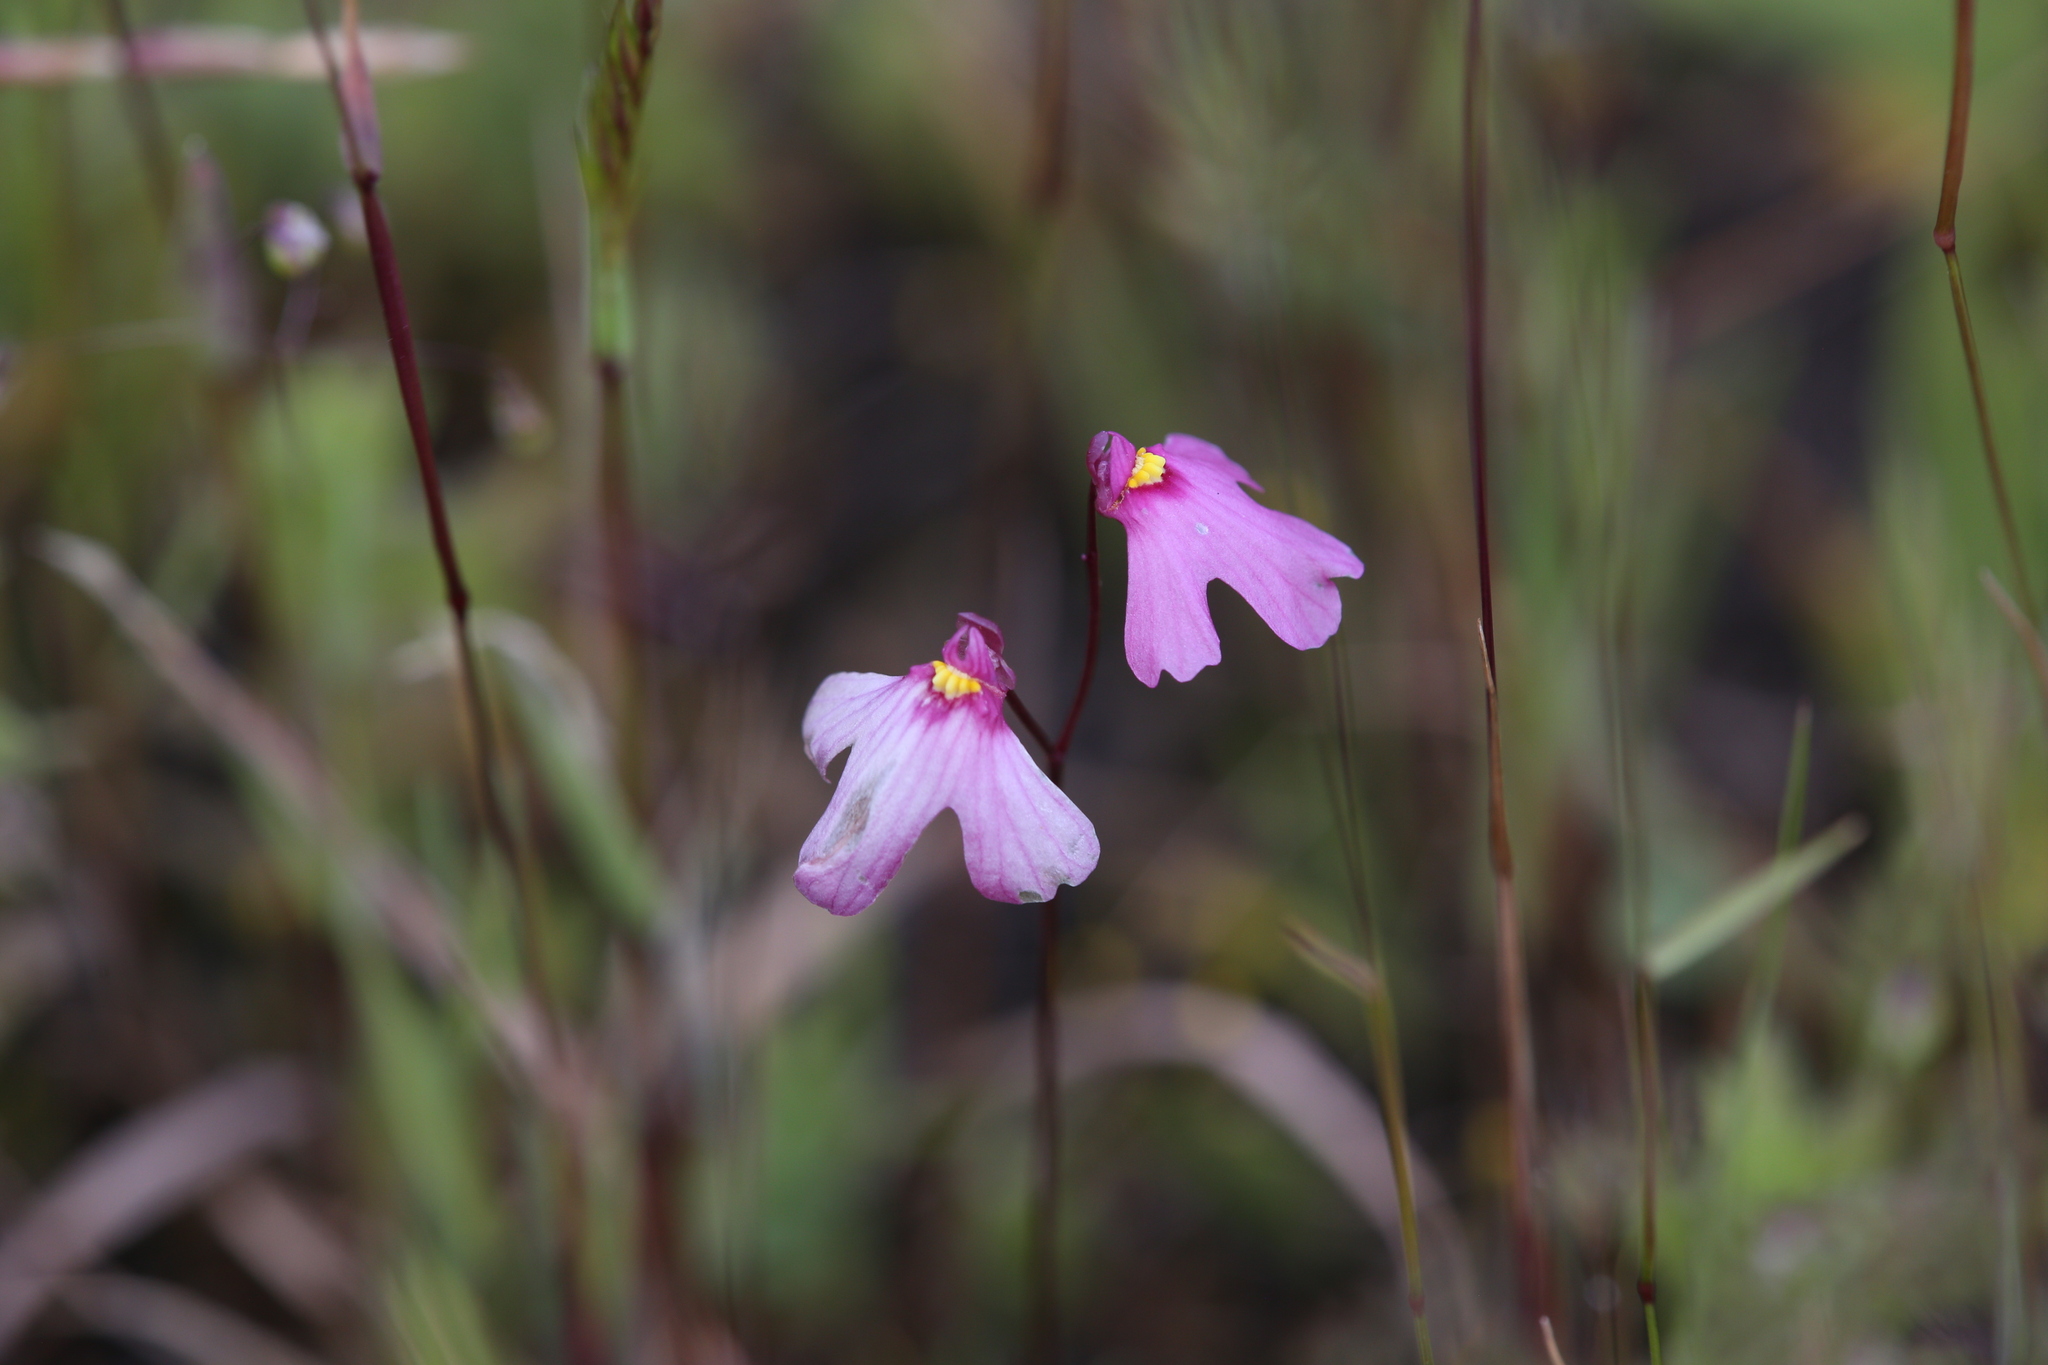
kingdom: Plantae
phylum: Tracheophyta
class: Magnoliopsida
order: Lamiales
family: Lentibulariaceae
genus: Utricularia
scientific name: Utricularia multifida
